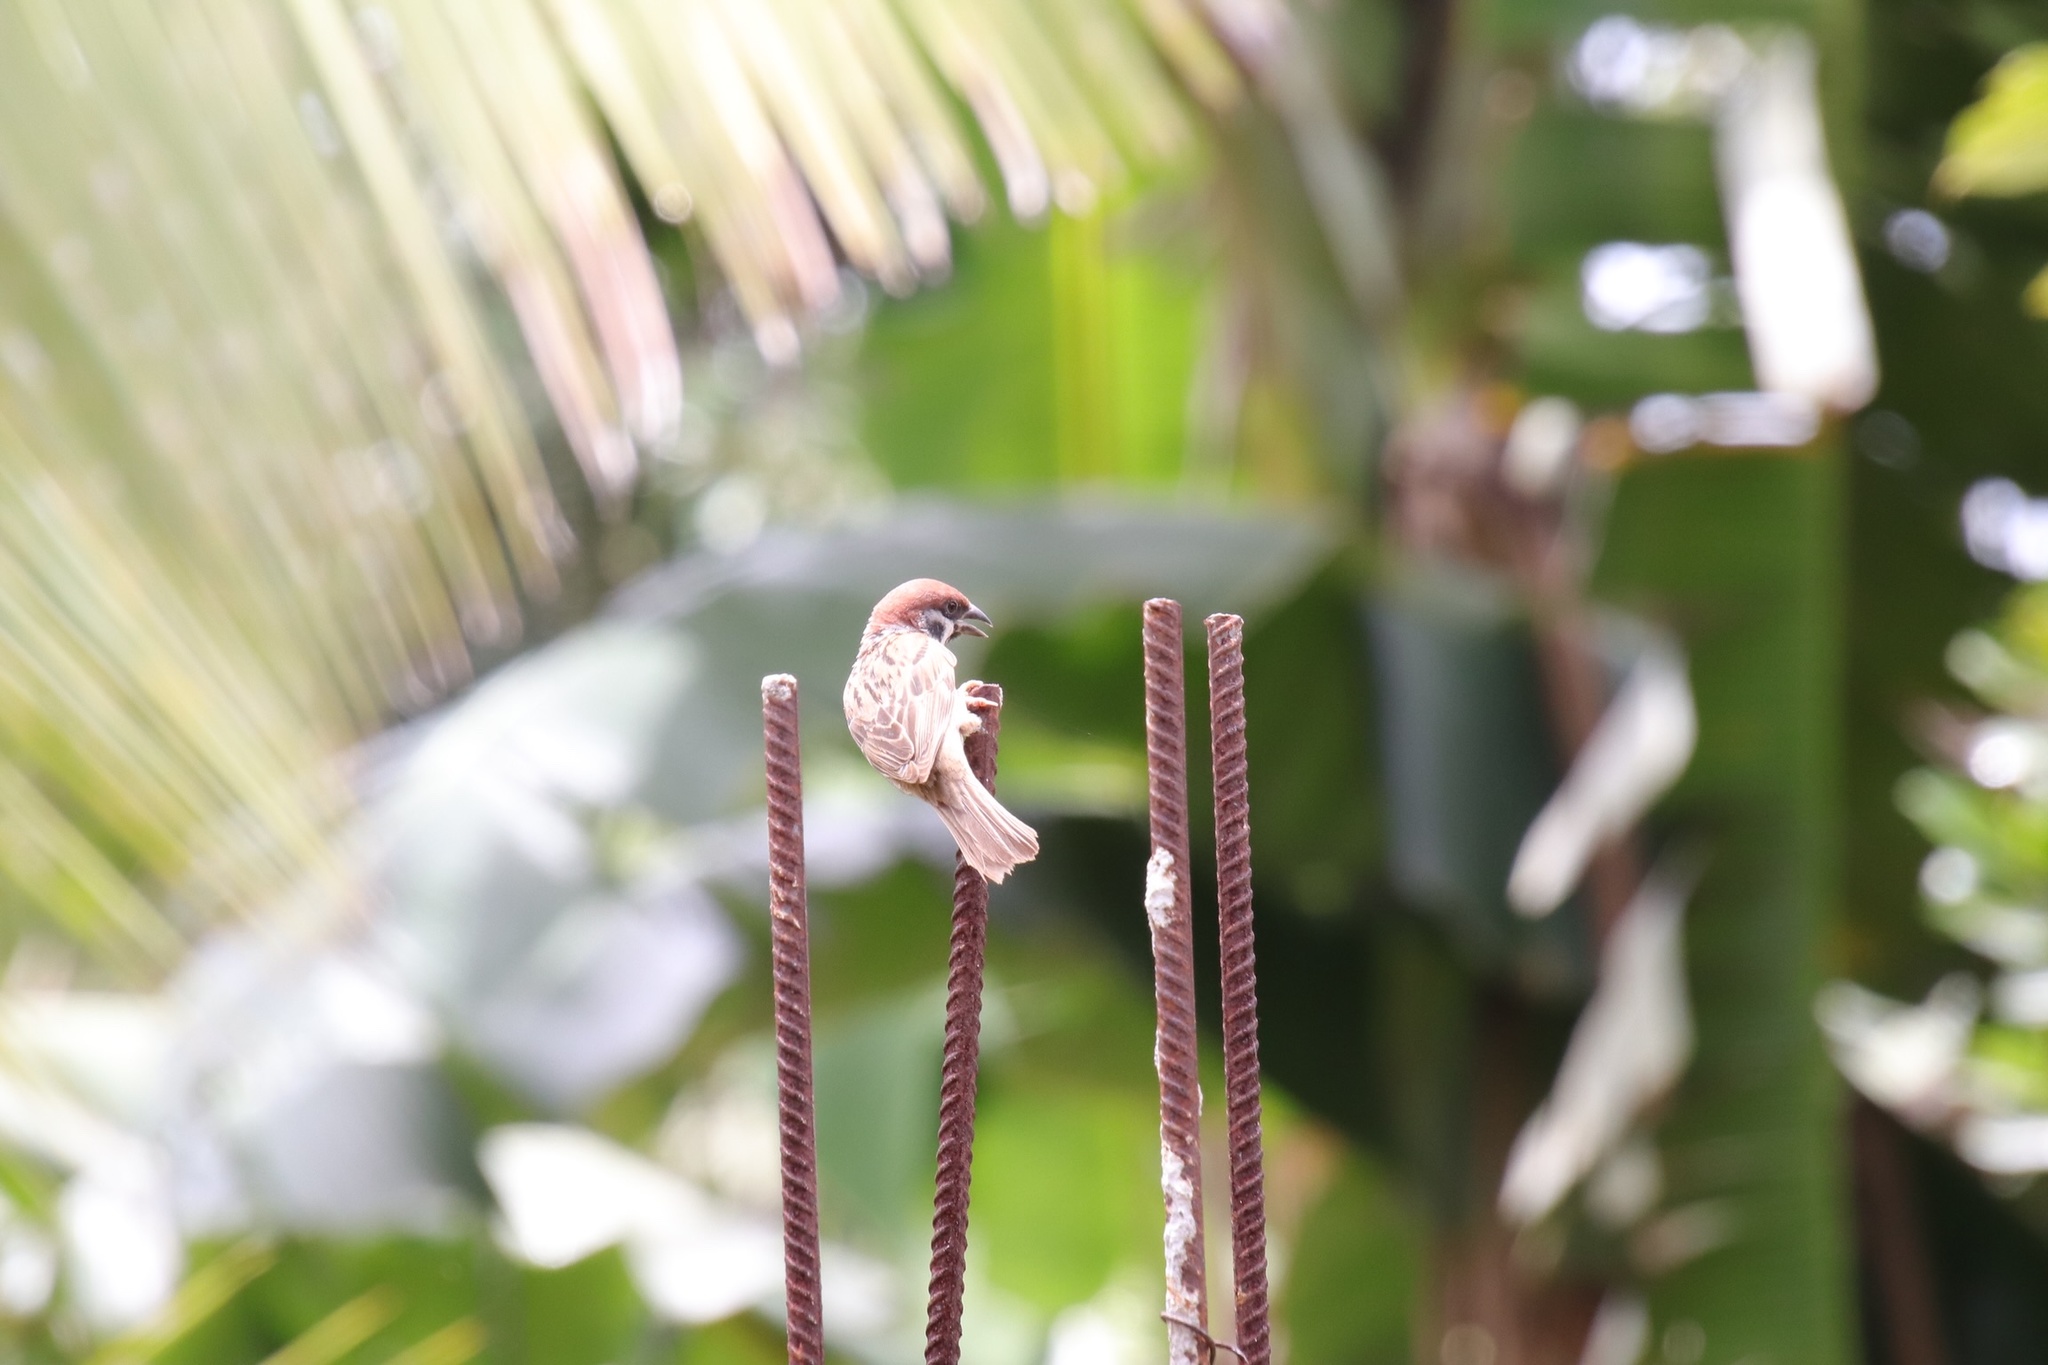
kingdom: Animalia
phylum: Chordata
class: Aves
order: Passeriformes
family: Passeridae
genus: Passer
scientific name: Passer montanus
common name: Eurasian tree sparrow
